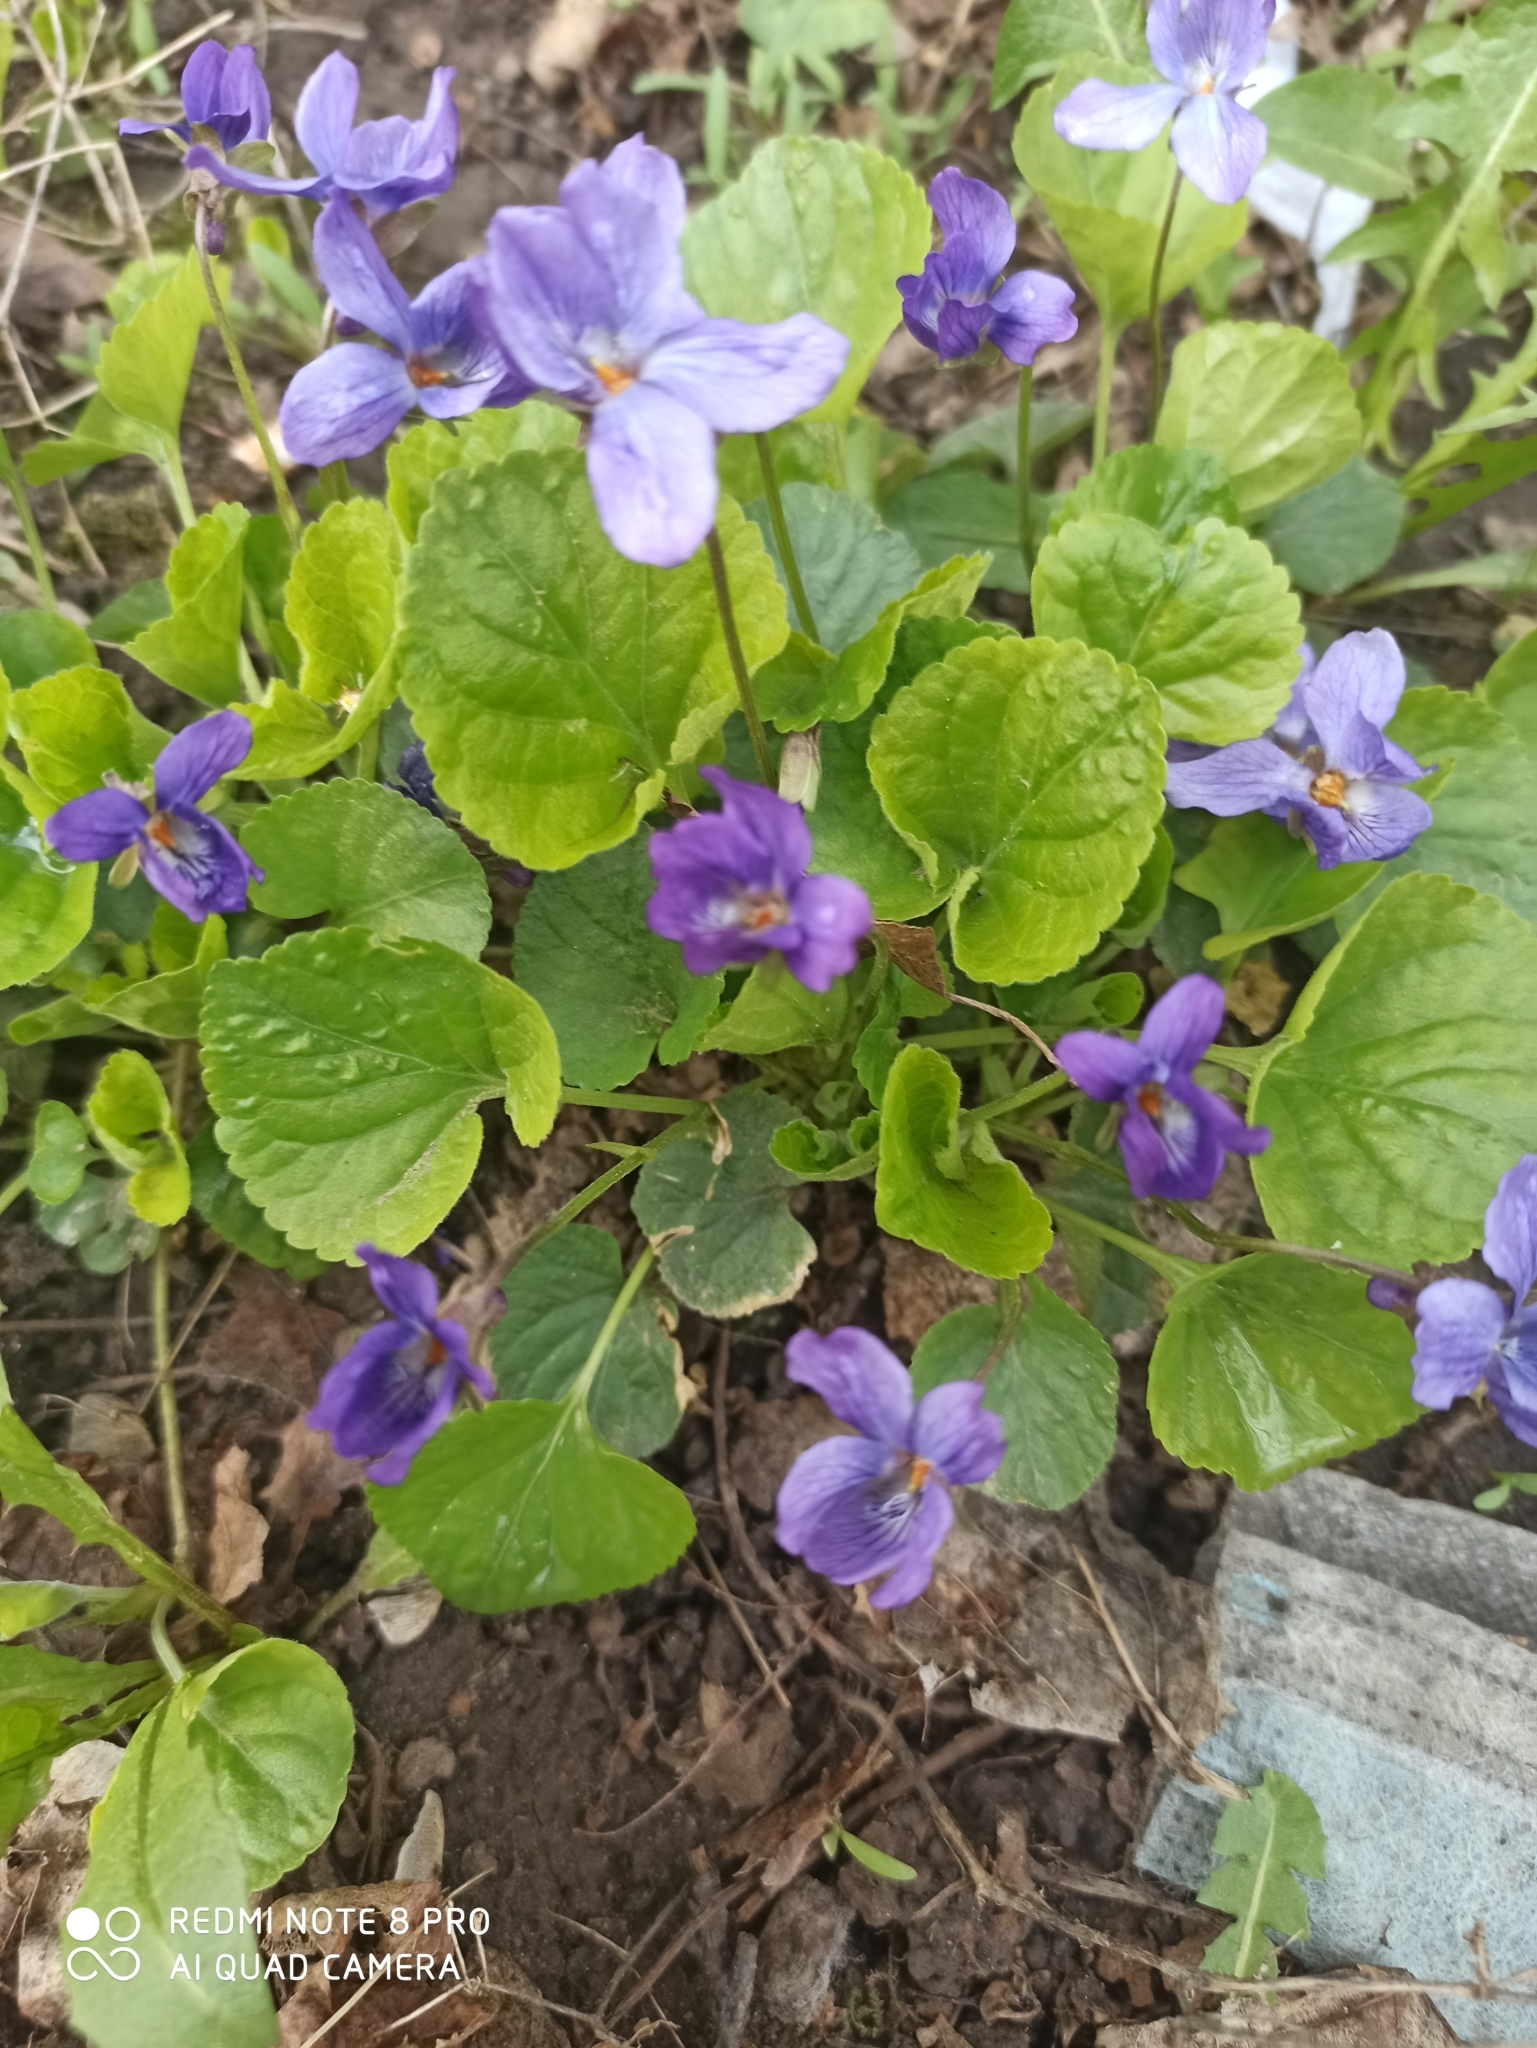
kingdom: Plantae
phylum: Tracheophyta
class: Magnoliopsida
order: Malpighiales
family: Violaceae
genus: Viola
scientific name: Viola odorata
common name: Sweet violet
